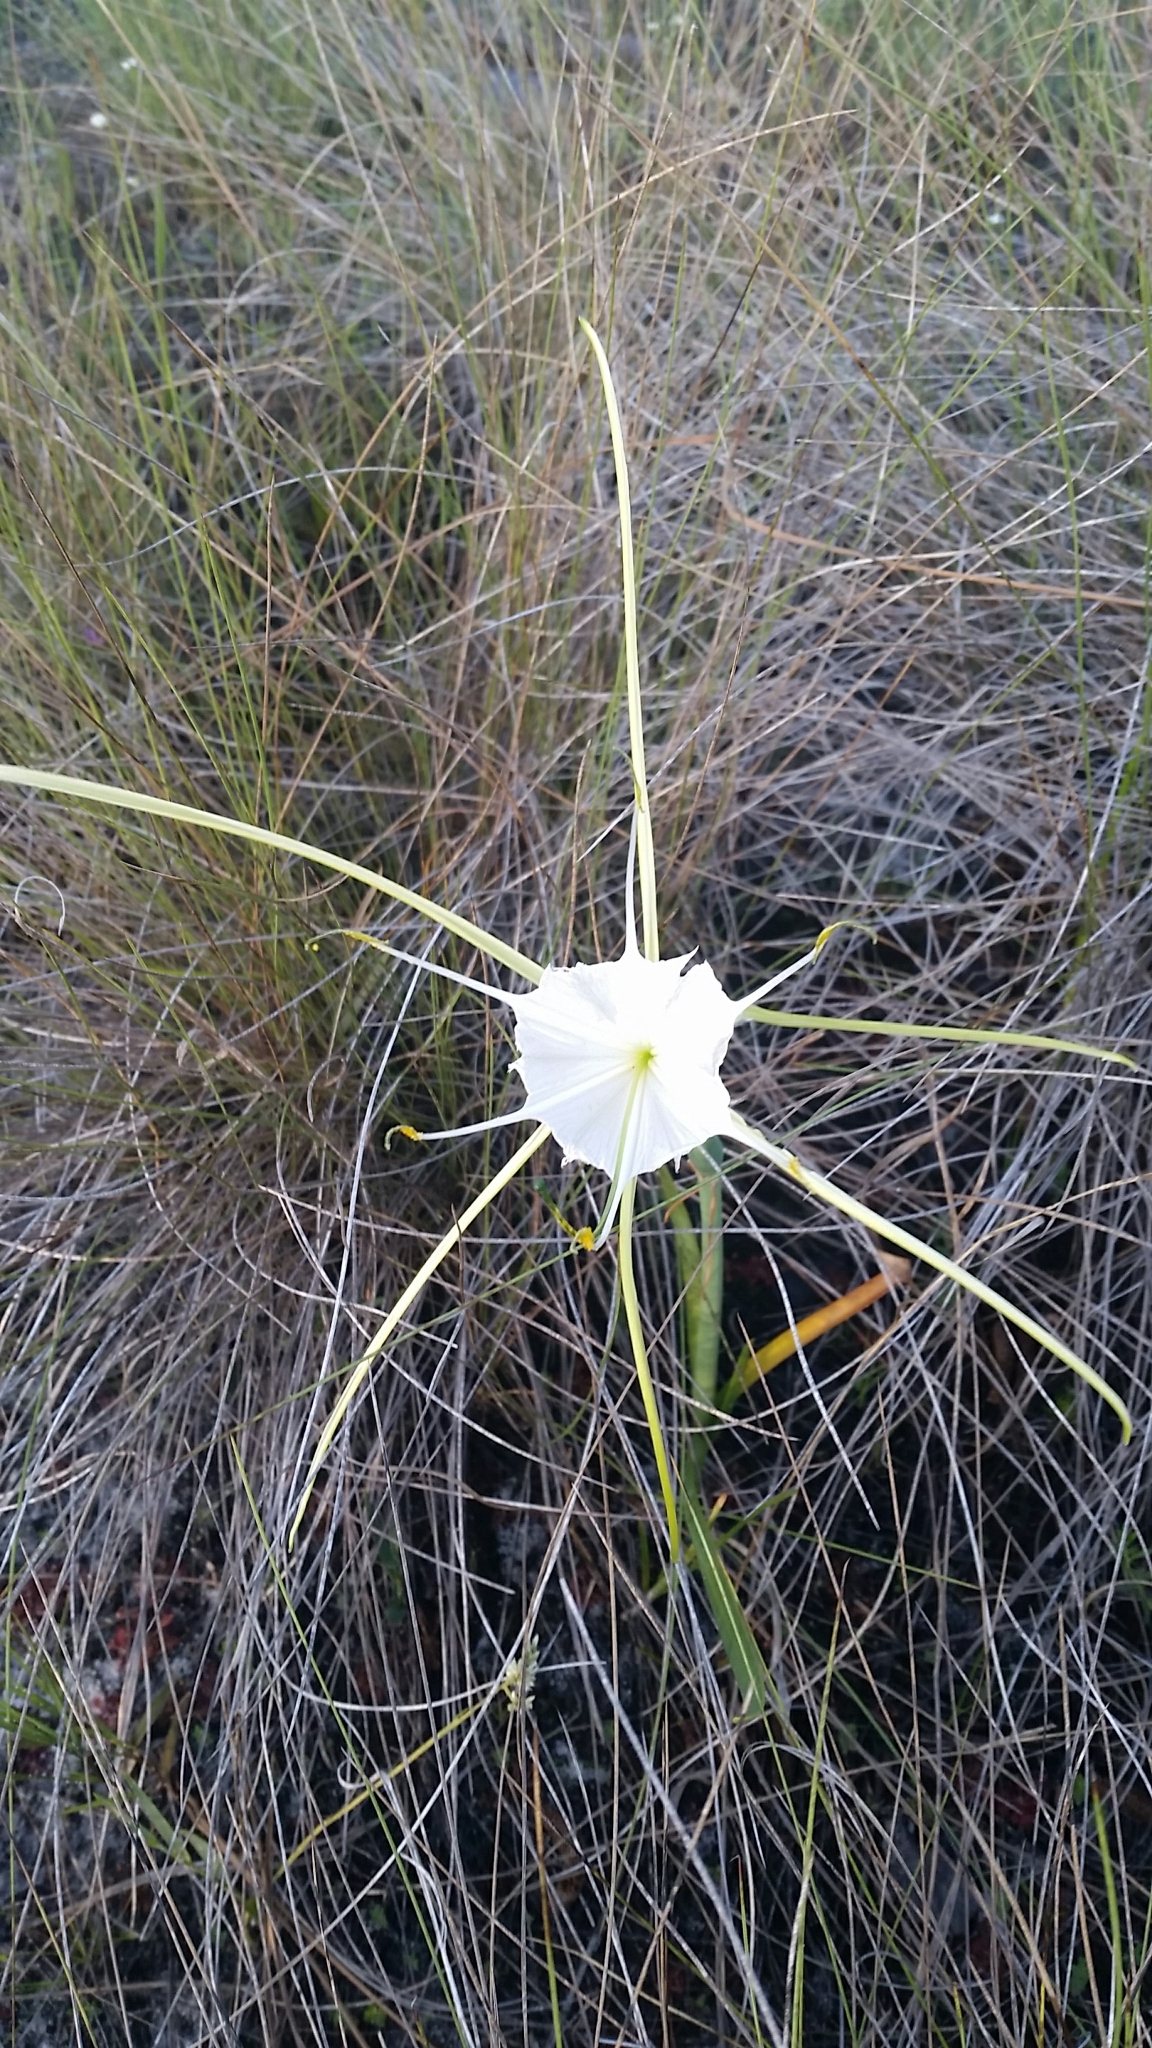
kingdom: Plantae
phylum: Tracheophyta
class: Liliopsida
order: Asparagales
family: Amaryllidaceae
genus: Hymenocallis
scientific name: Hymenocallis palmeri
